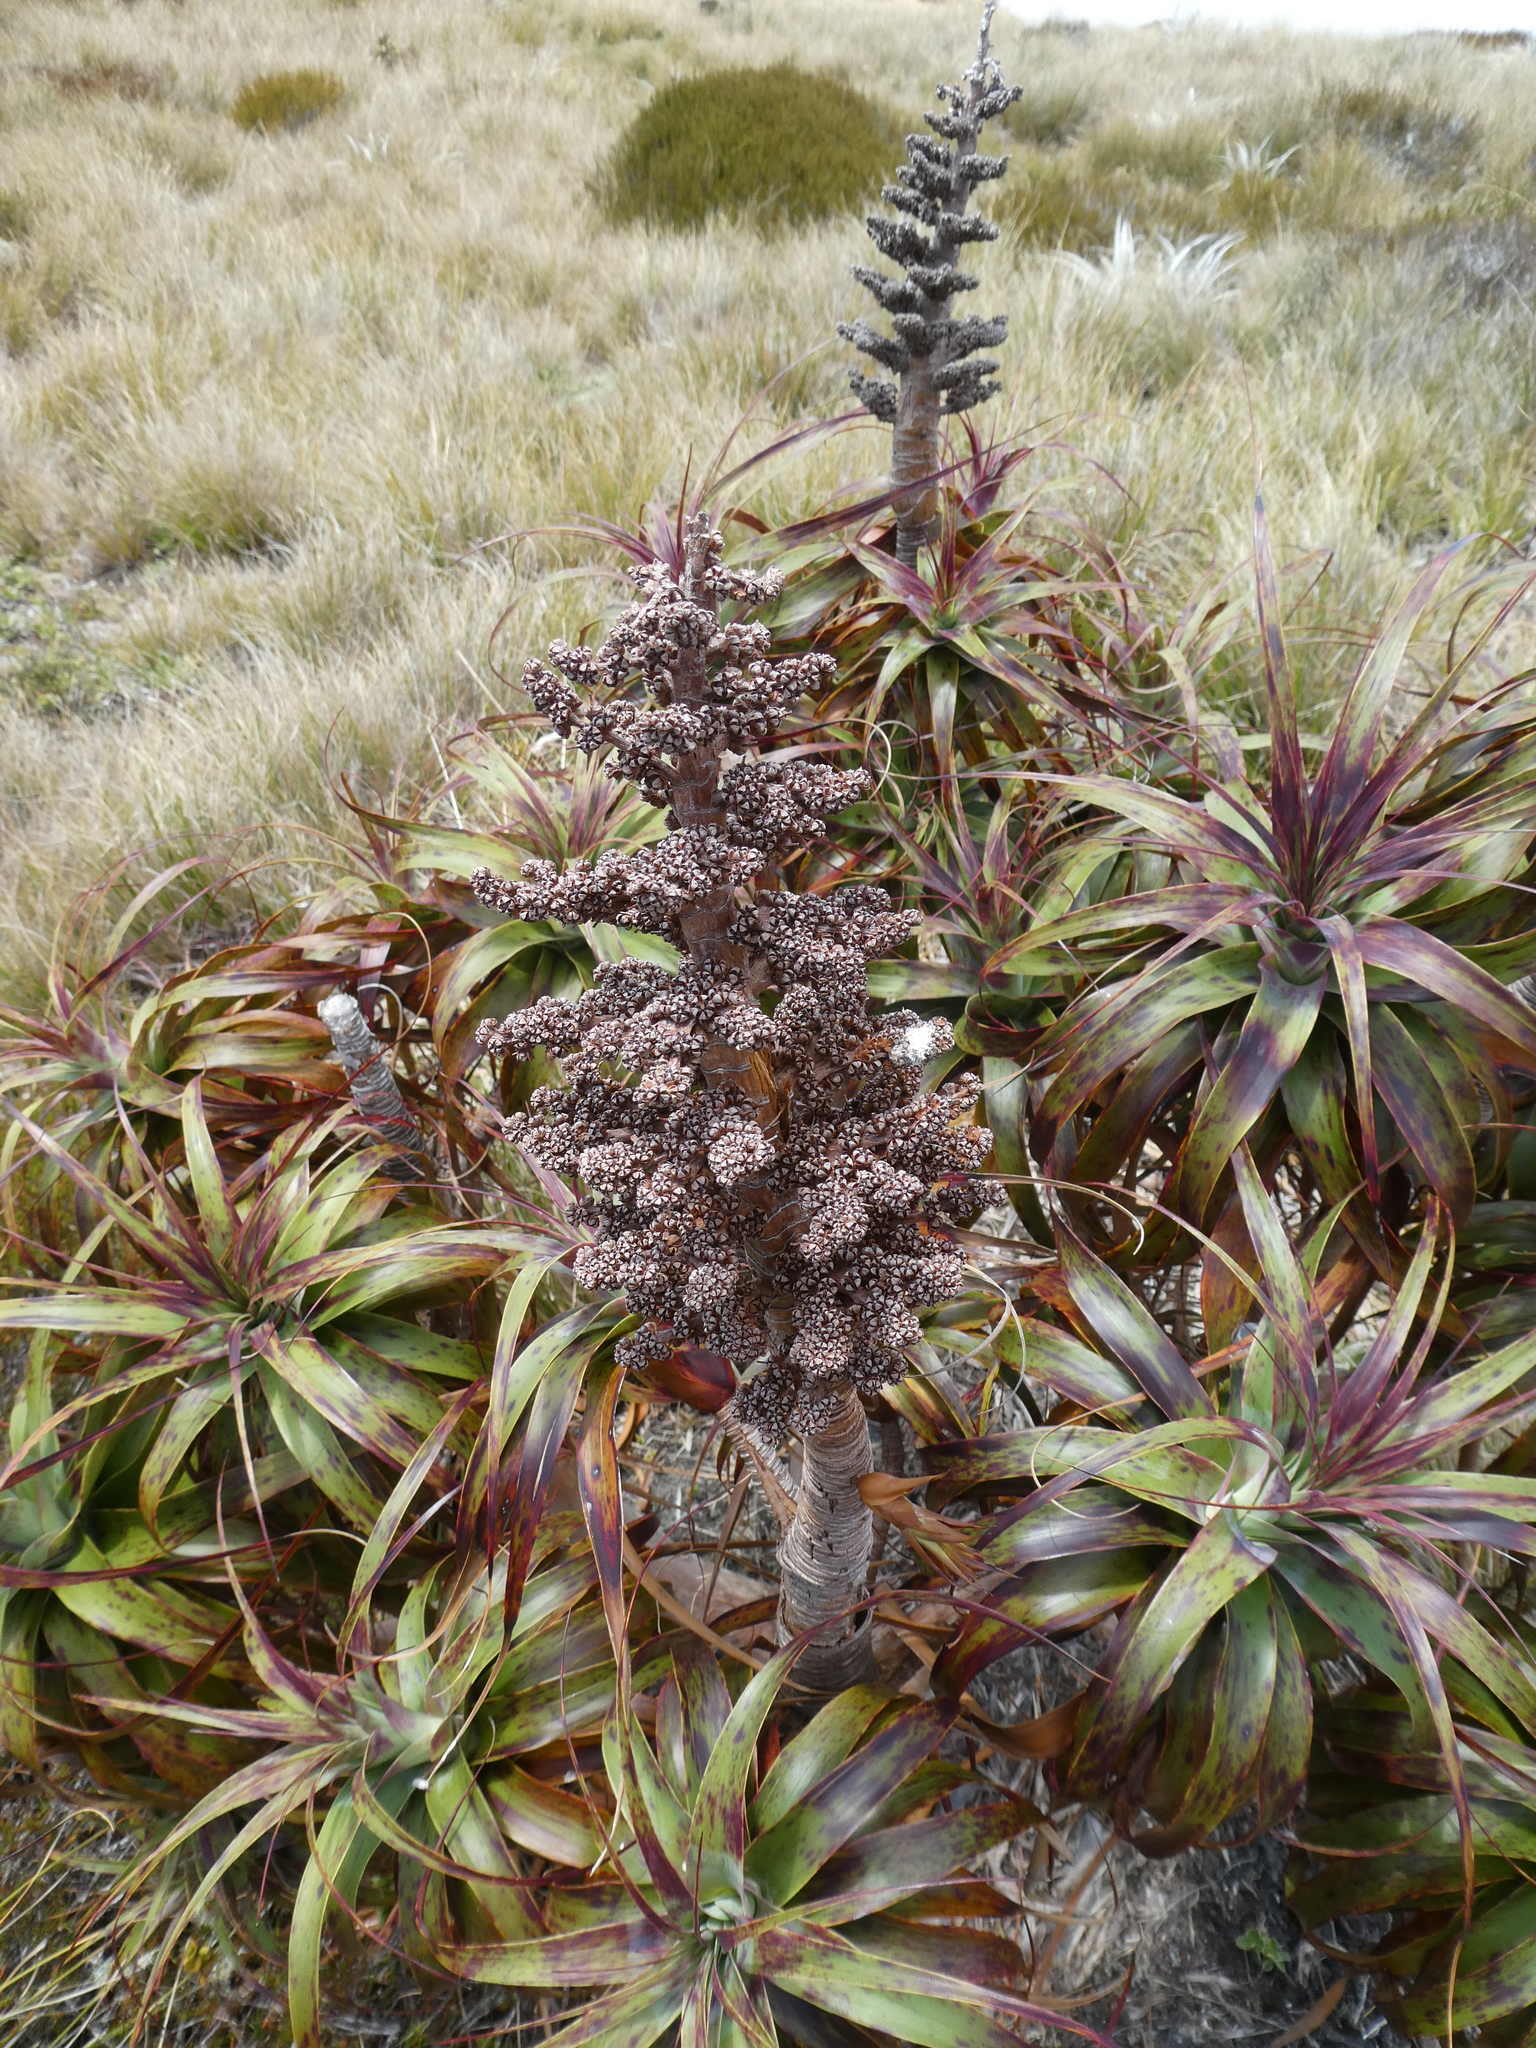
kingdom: Plantae
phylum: Tracheophyta
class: Magnoliopsida
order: Ericales
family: Ericaceae
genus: Dracophyllum
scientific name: Dracophyllum traversii
